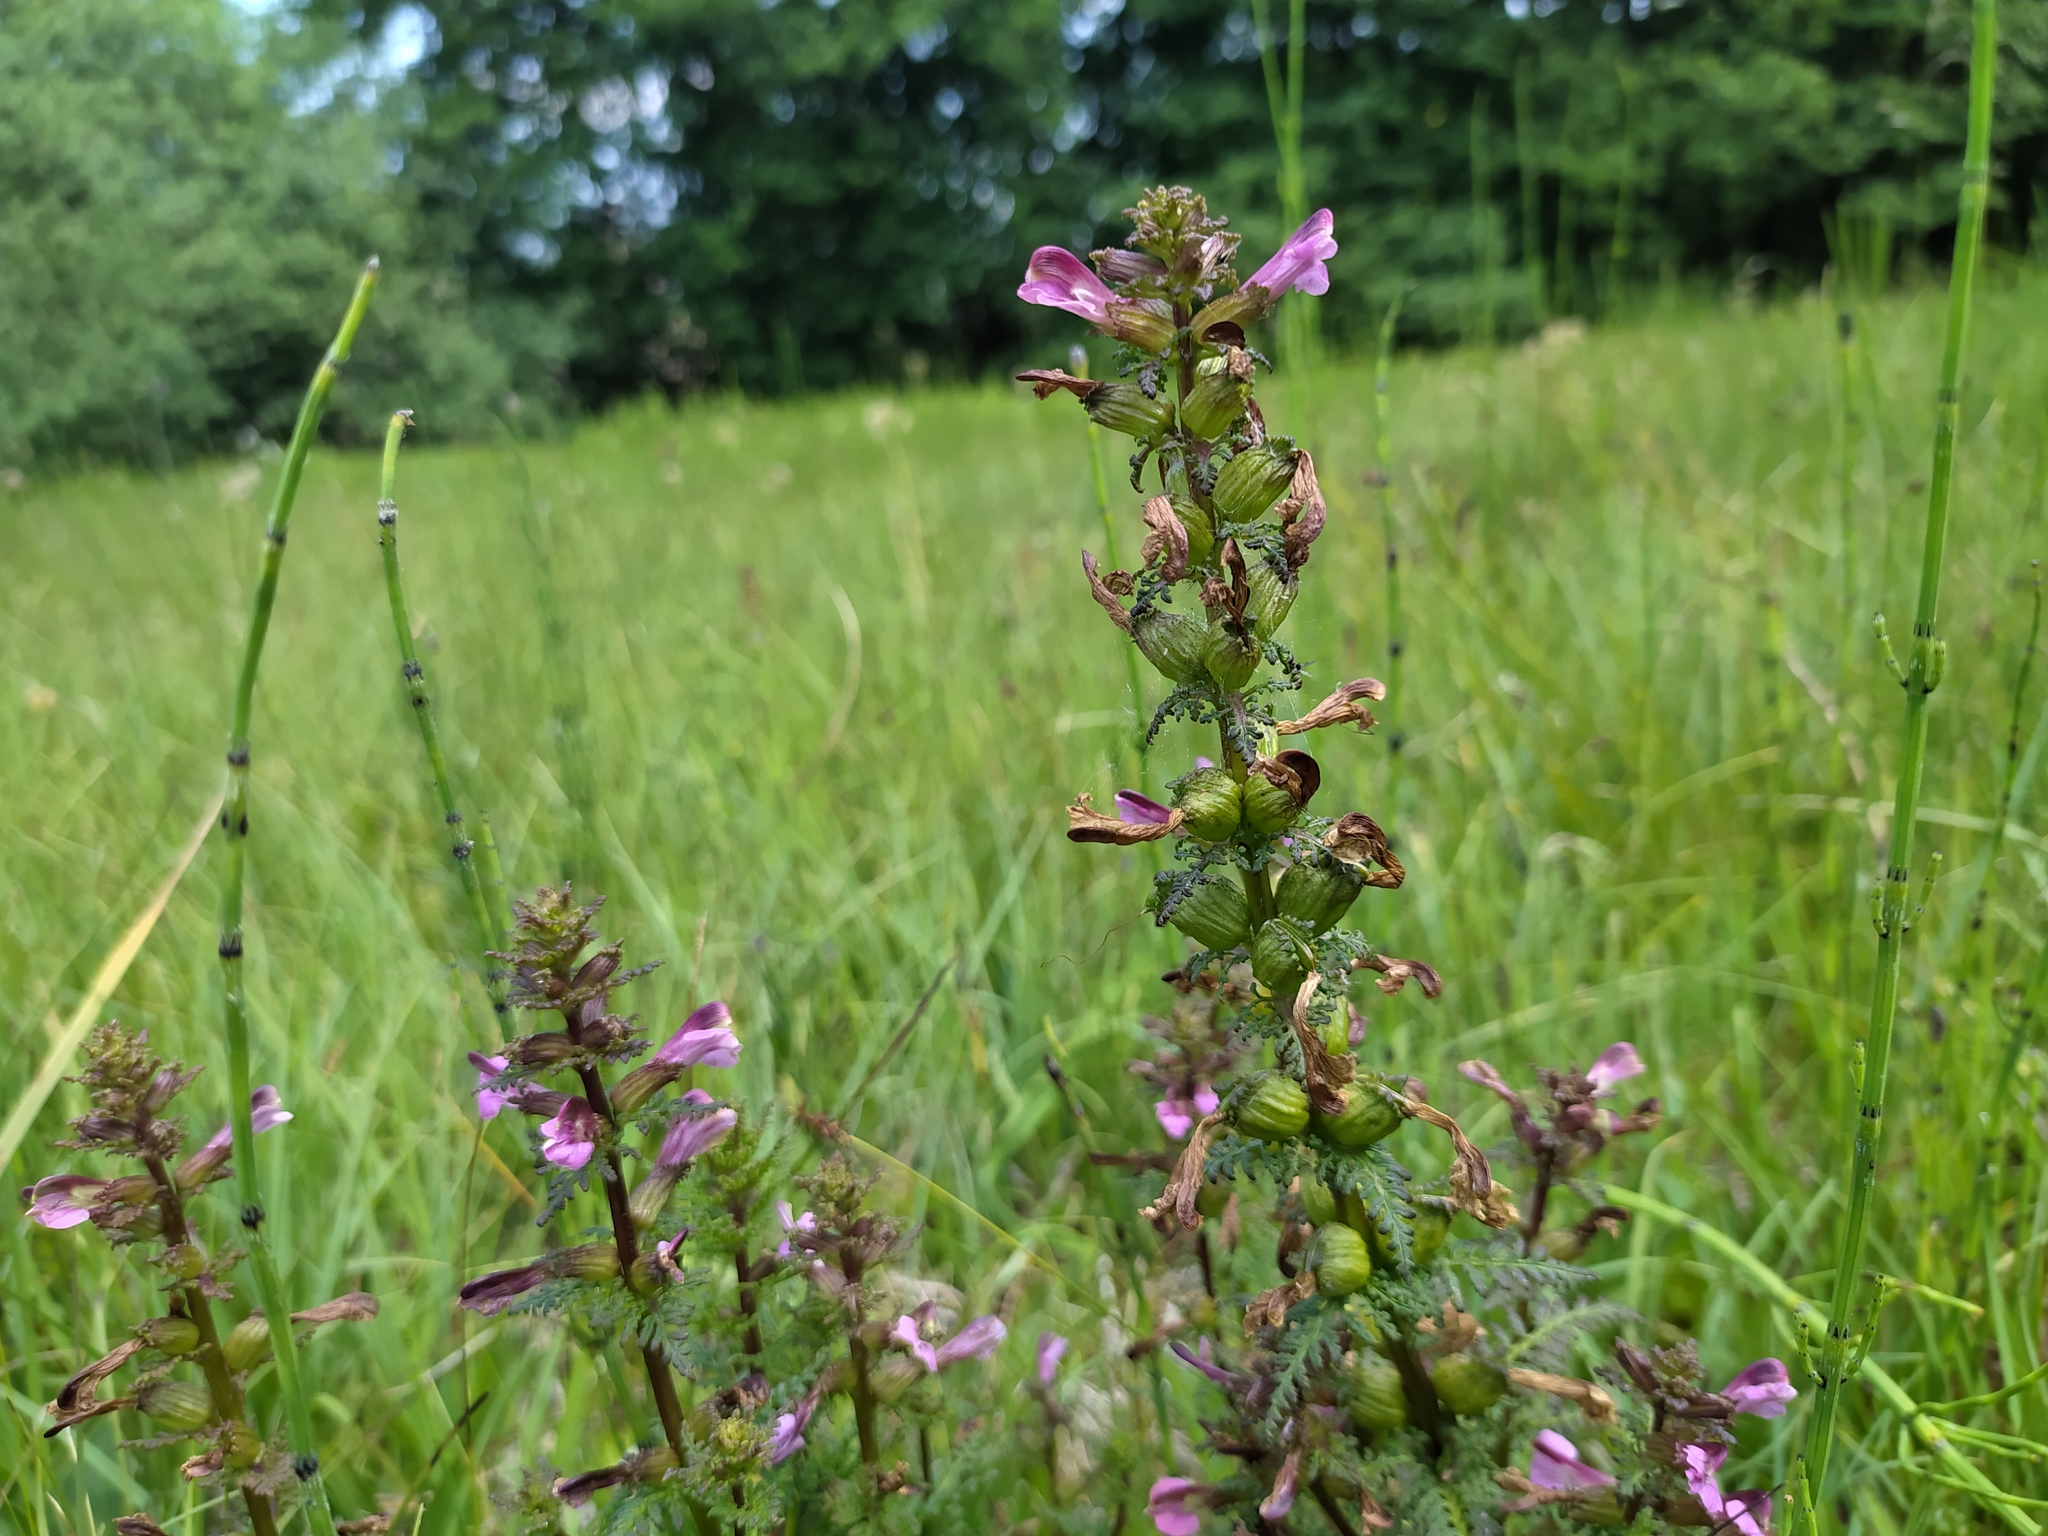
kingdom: Plantae
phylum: Tracheophyta
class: Magnoliopsida
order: Lamiales
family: Orobanchaceae
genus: Pedicularis
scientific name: Pedicularis palustris
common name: Marsh lousewort
